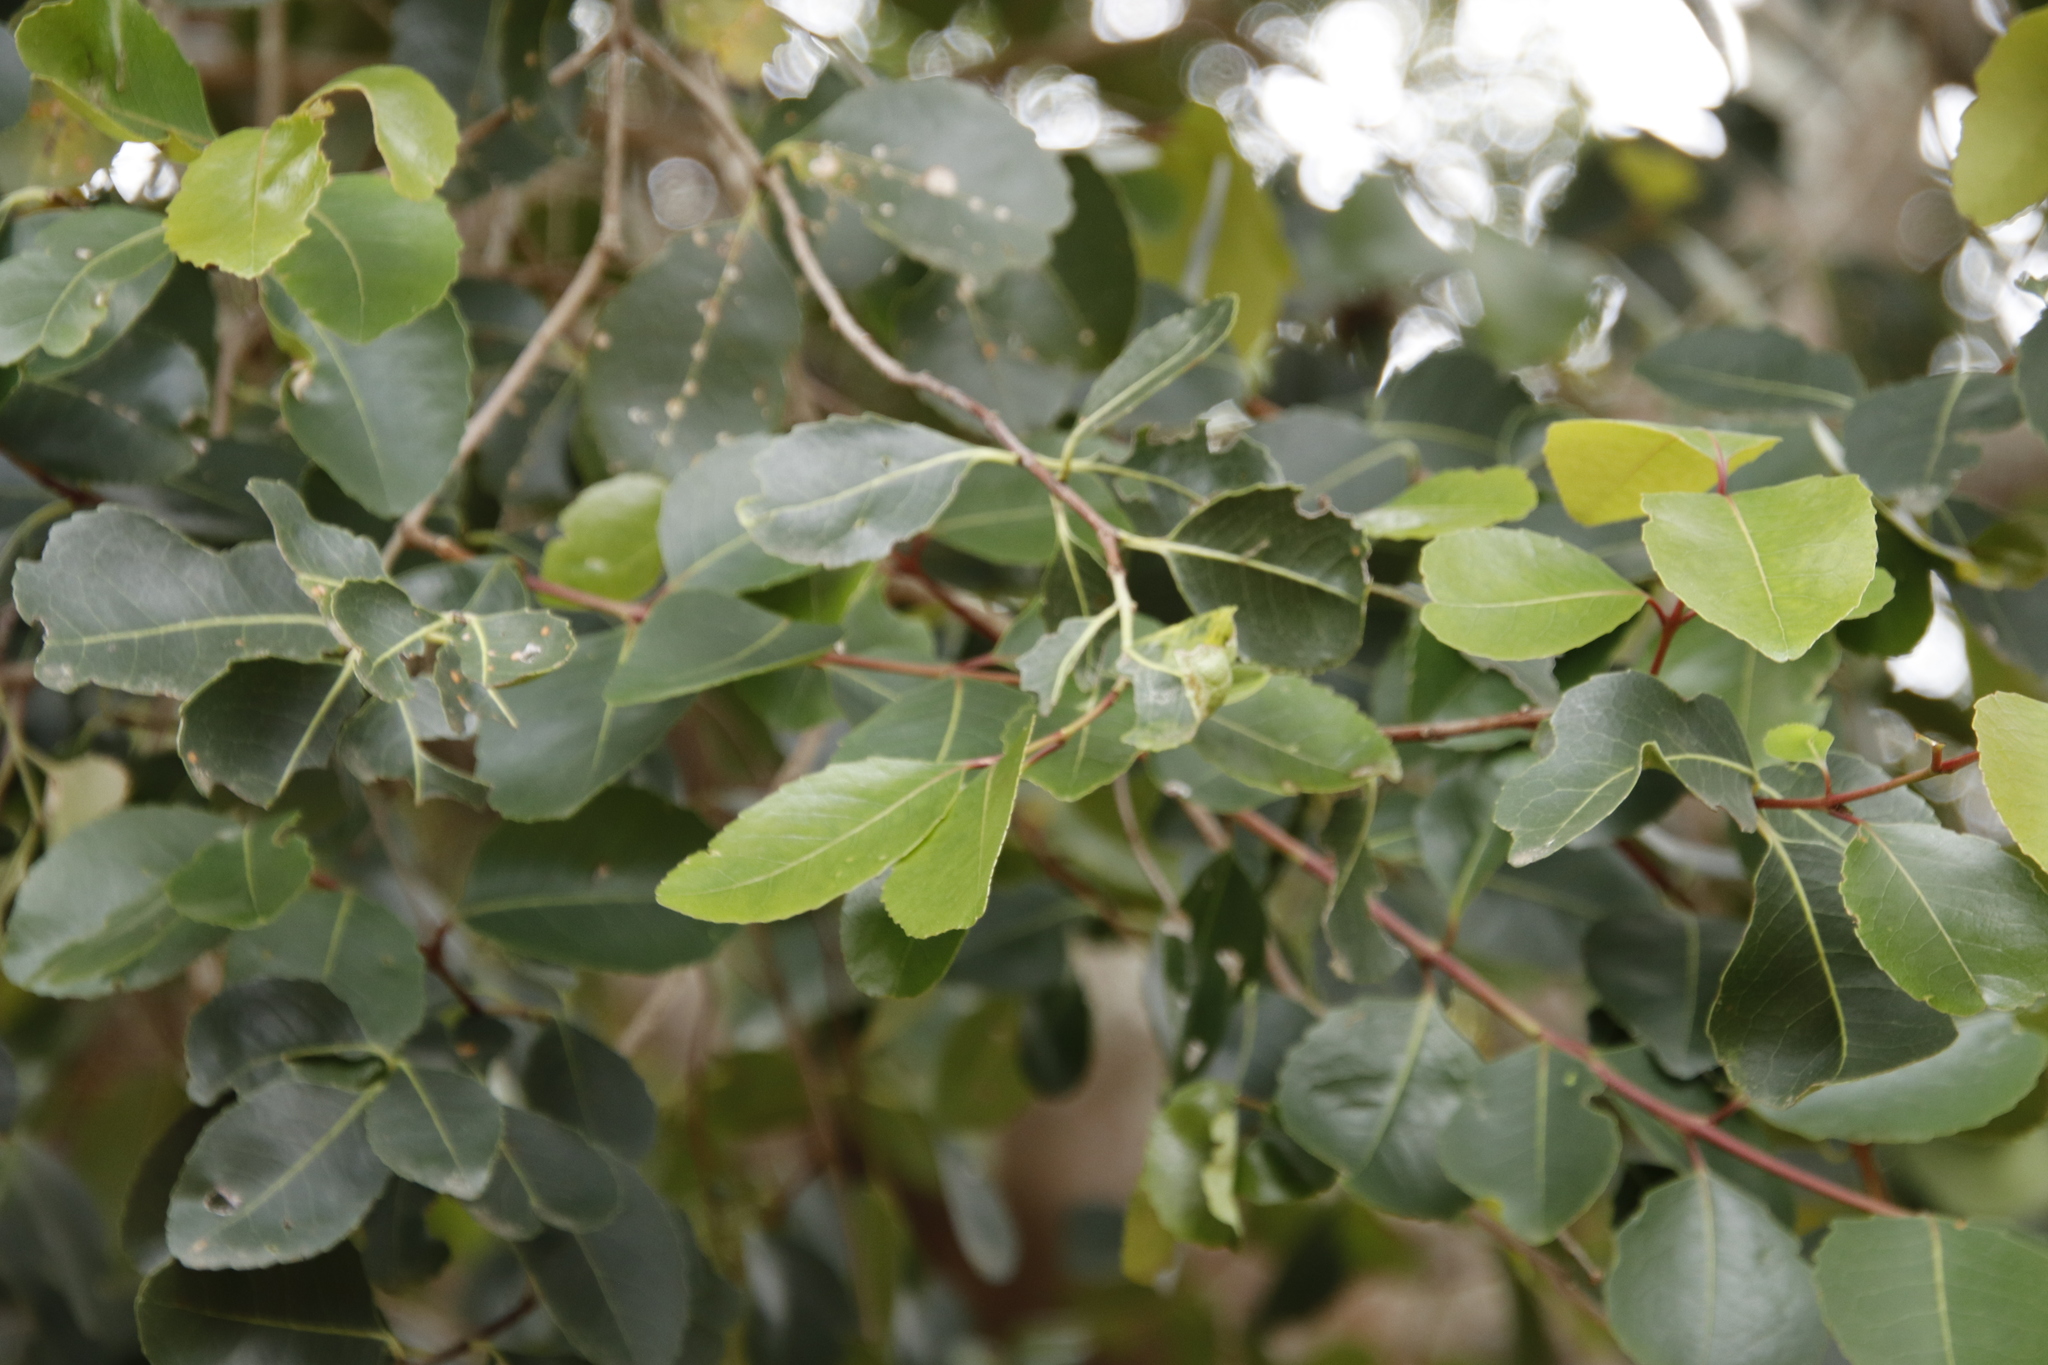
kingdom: Plantae
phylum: Tracheophyta
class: Magnoliopsida
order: Celastrales
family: Celastraceae
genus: Cassine
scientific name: Cassine peragua
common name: Cape saffron
